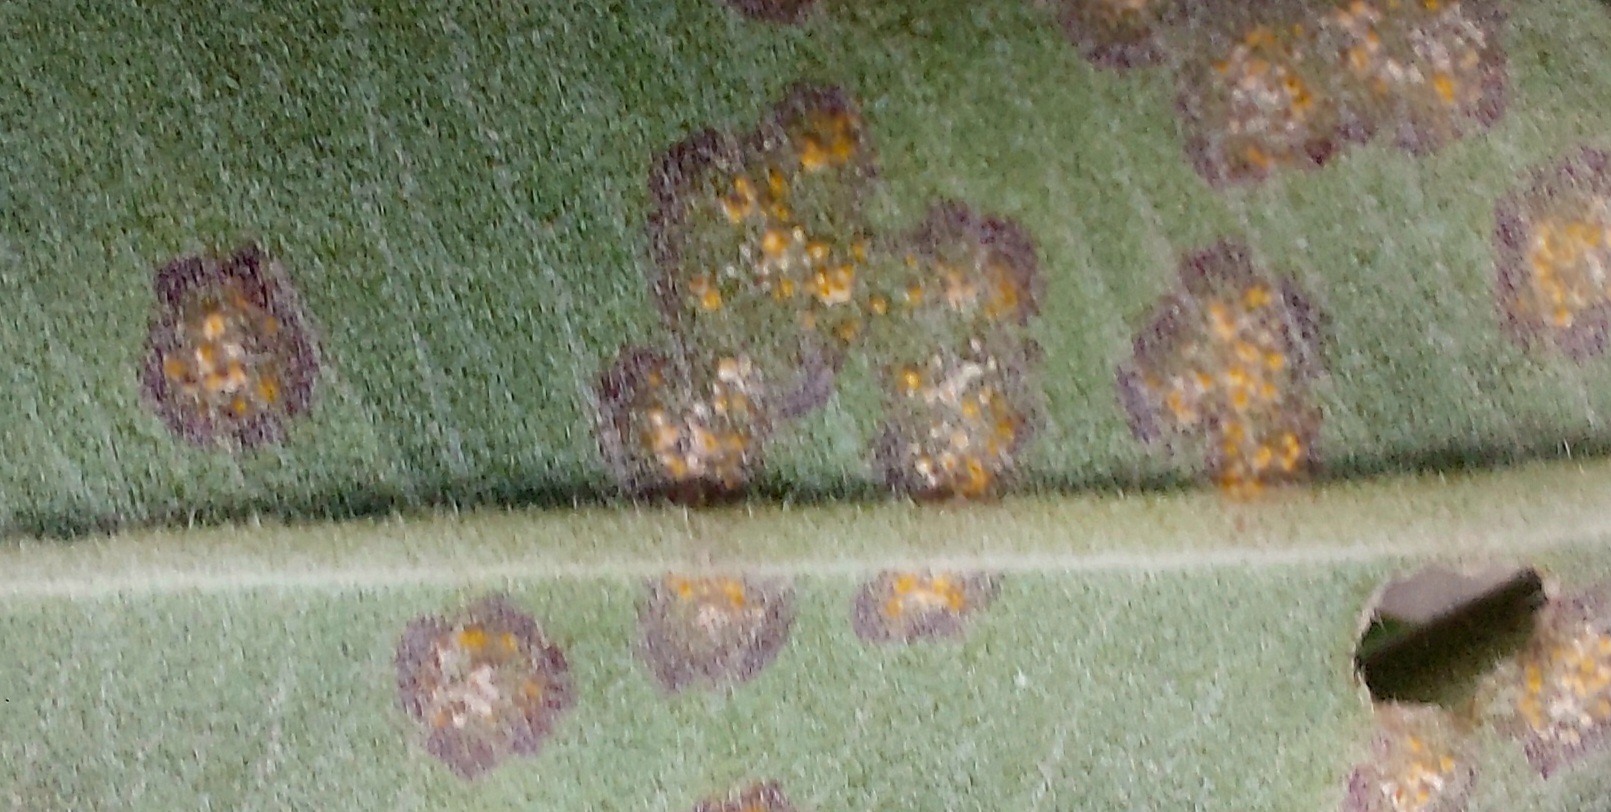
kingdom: Fungi
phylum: Basidiomycota
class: Pucciniomycetes
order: Pucciniales
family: Sphaerophragmiaceae
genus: Austropuccinia
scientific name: Austropuccinia psidii
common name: Myrtle rust
